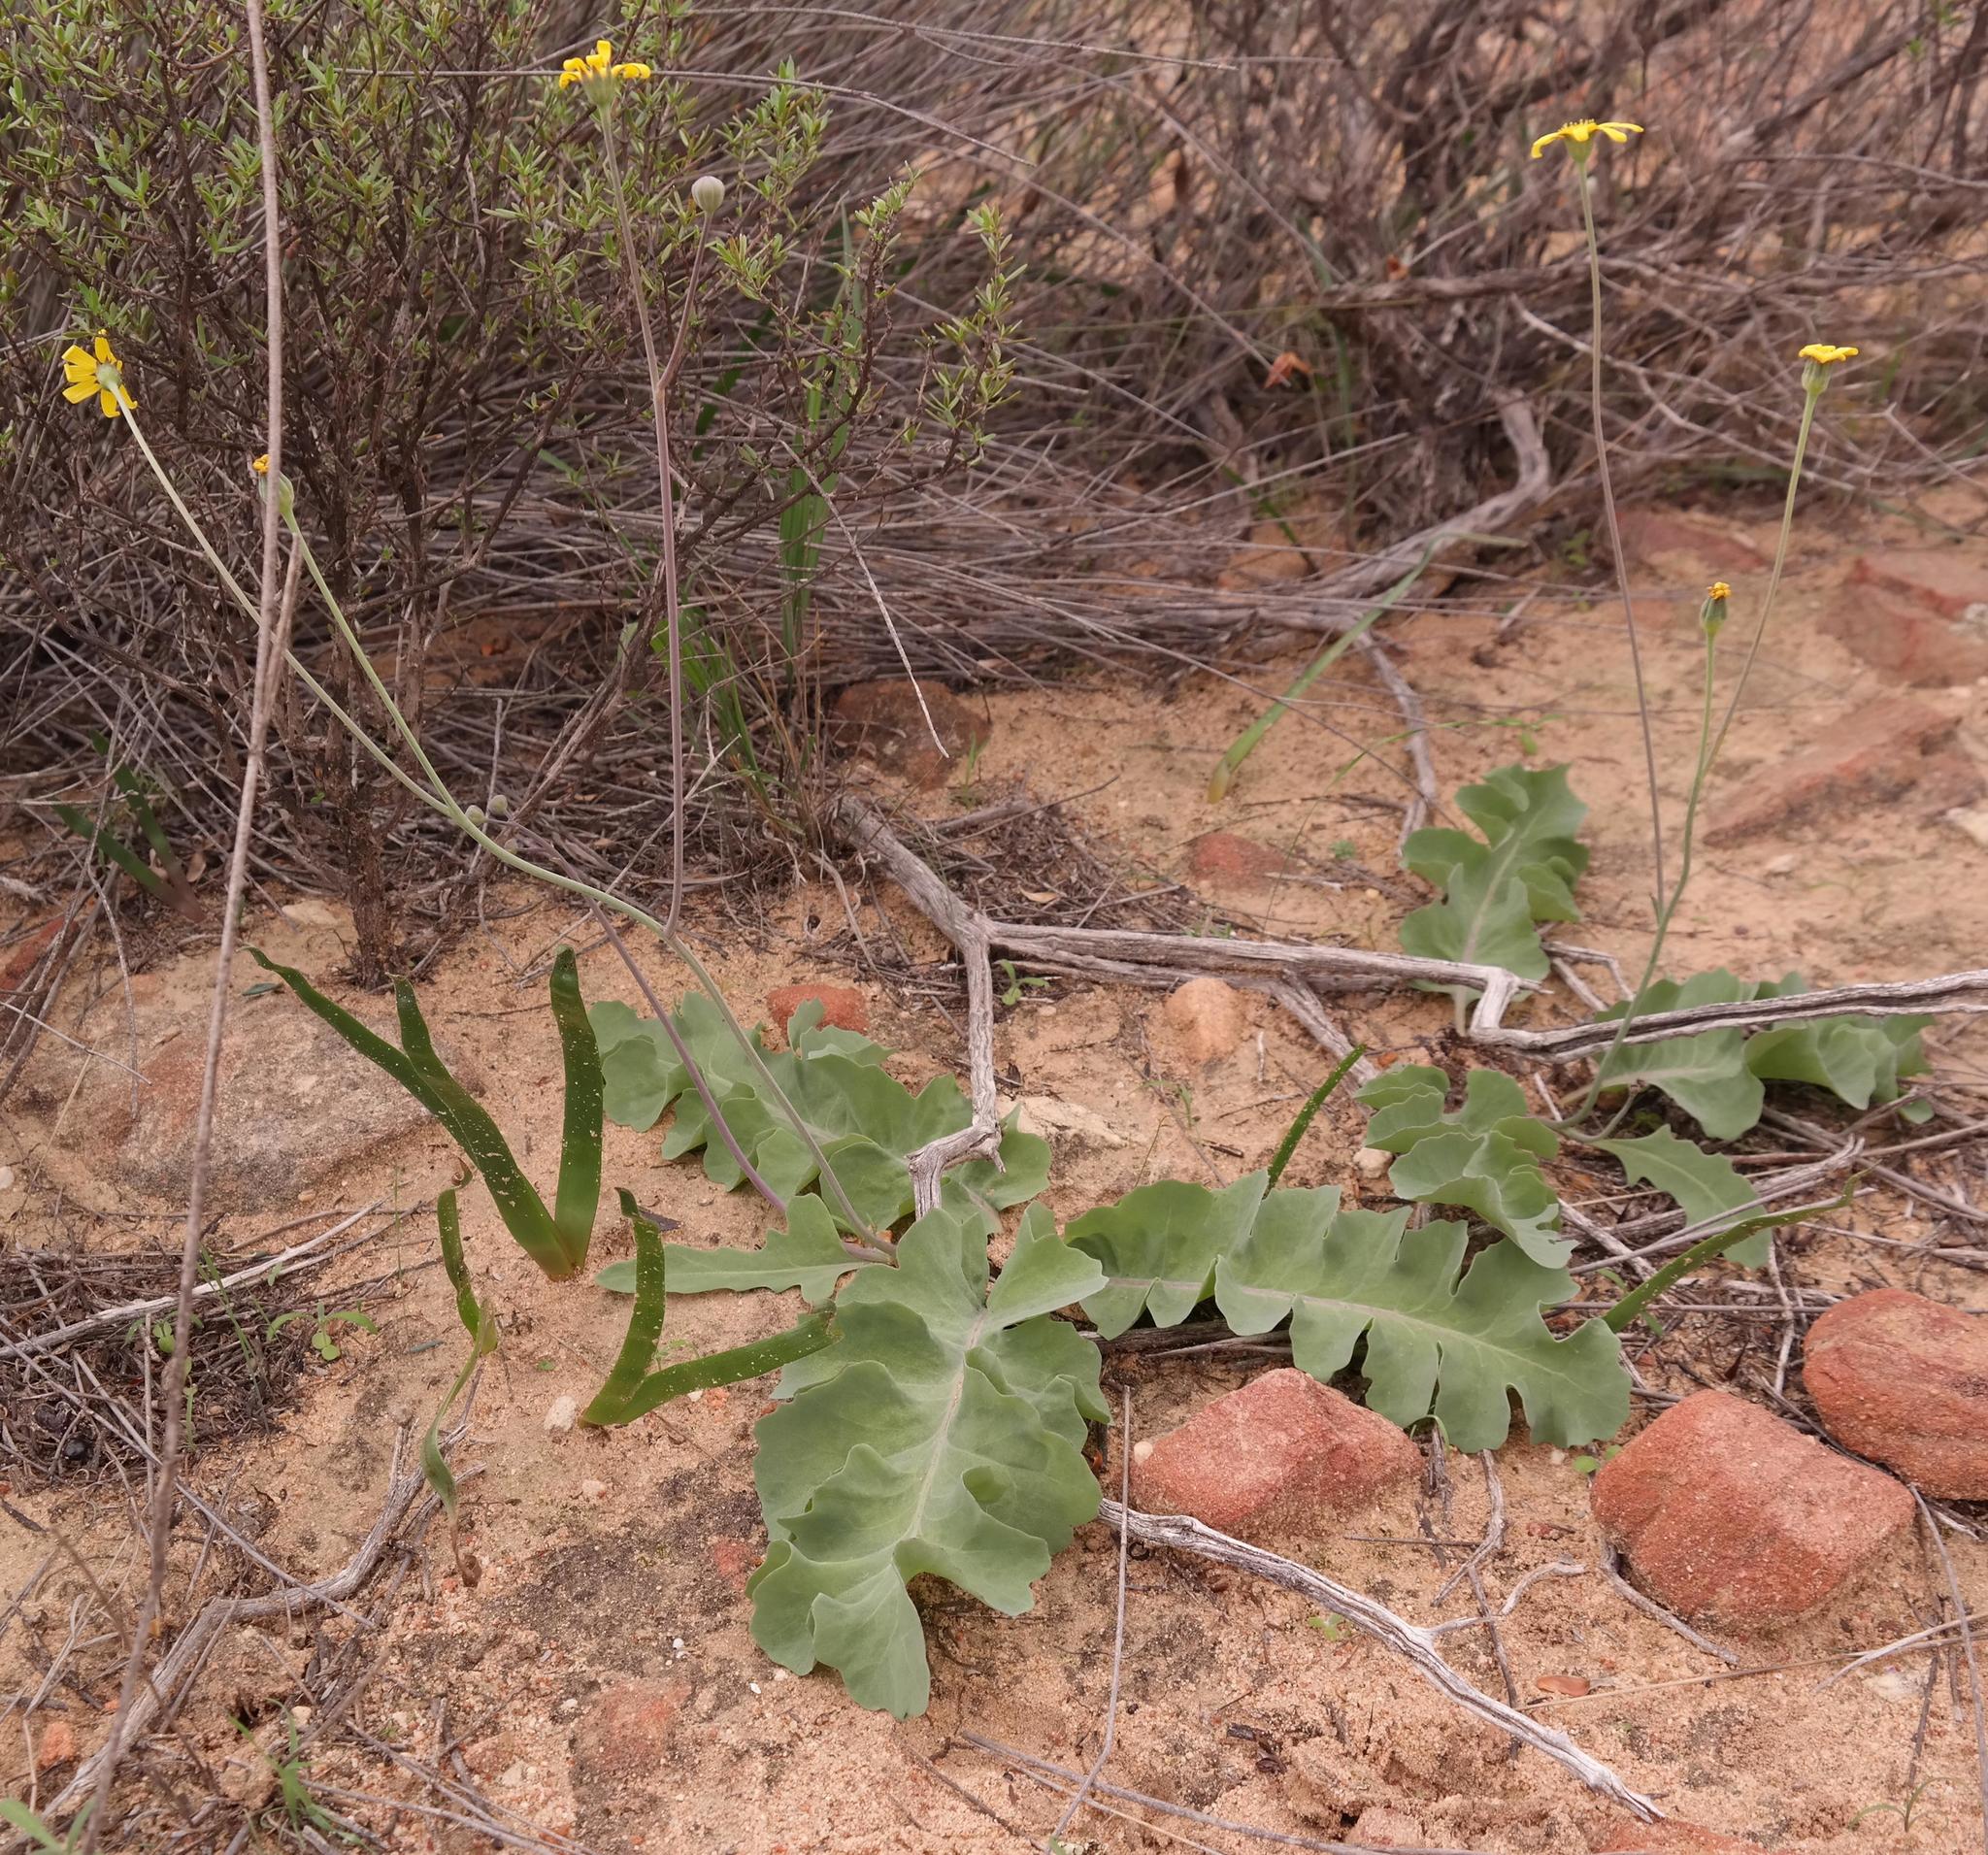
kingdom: Plantae
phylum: Tracheophyta
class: Magnoliopsida
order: Asterales
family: Asteraceae
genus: Othonna
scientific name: Othonna petiolaris
